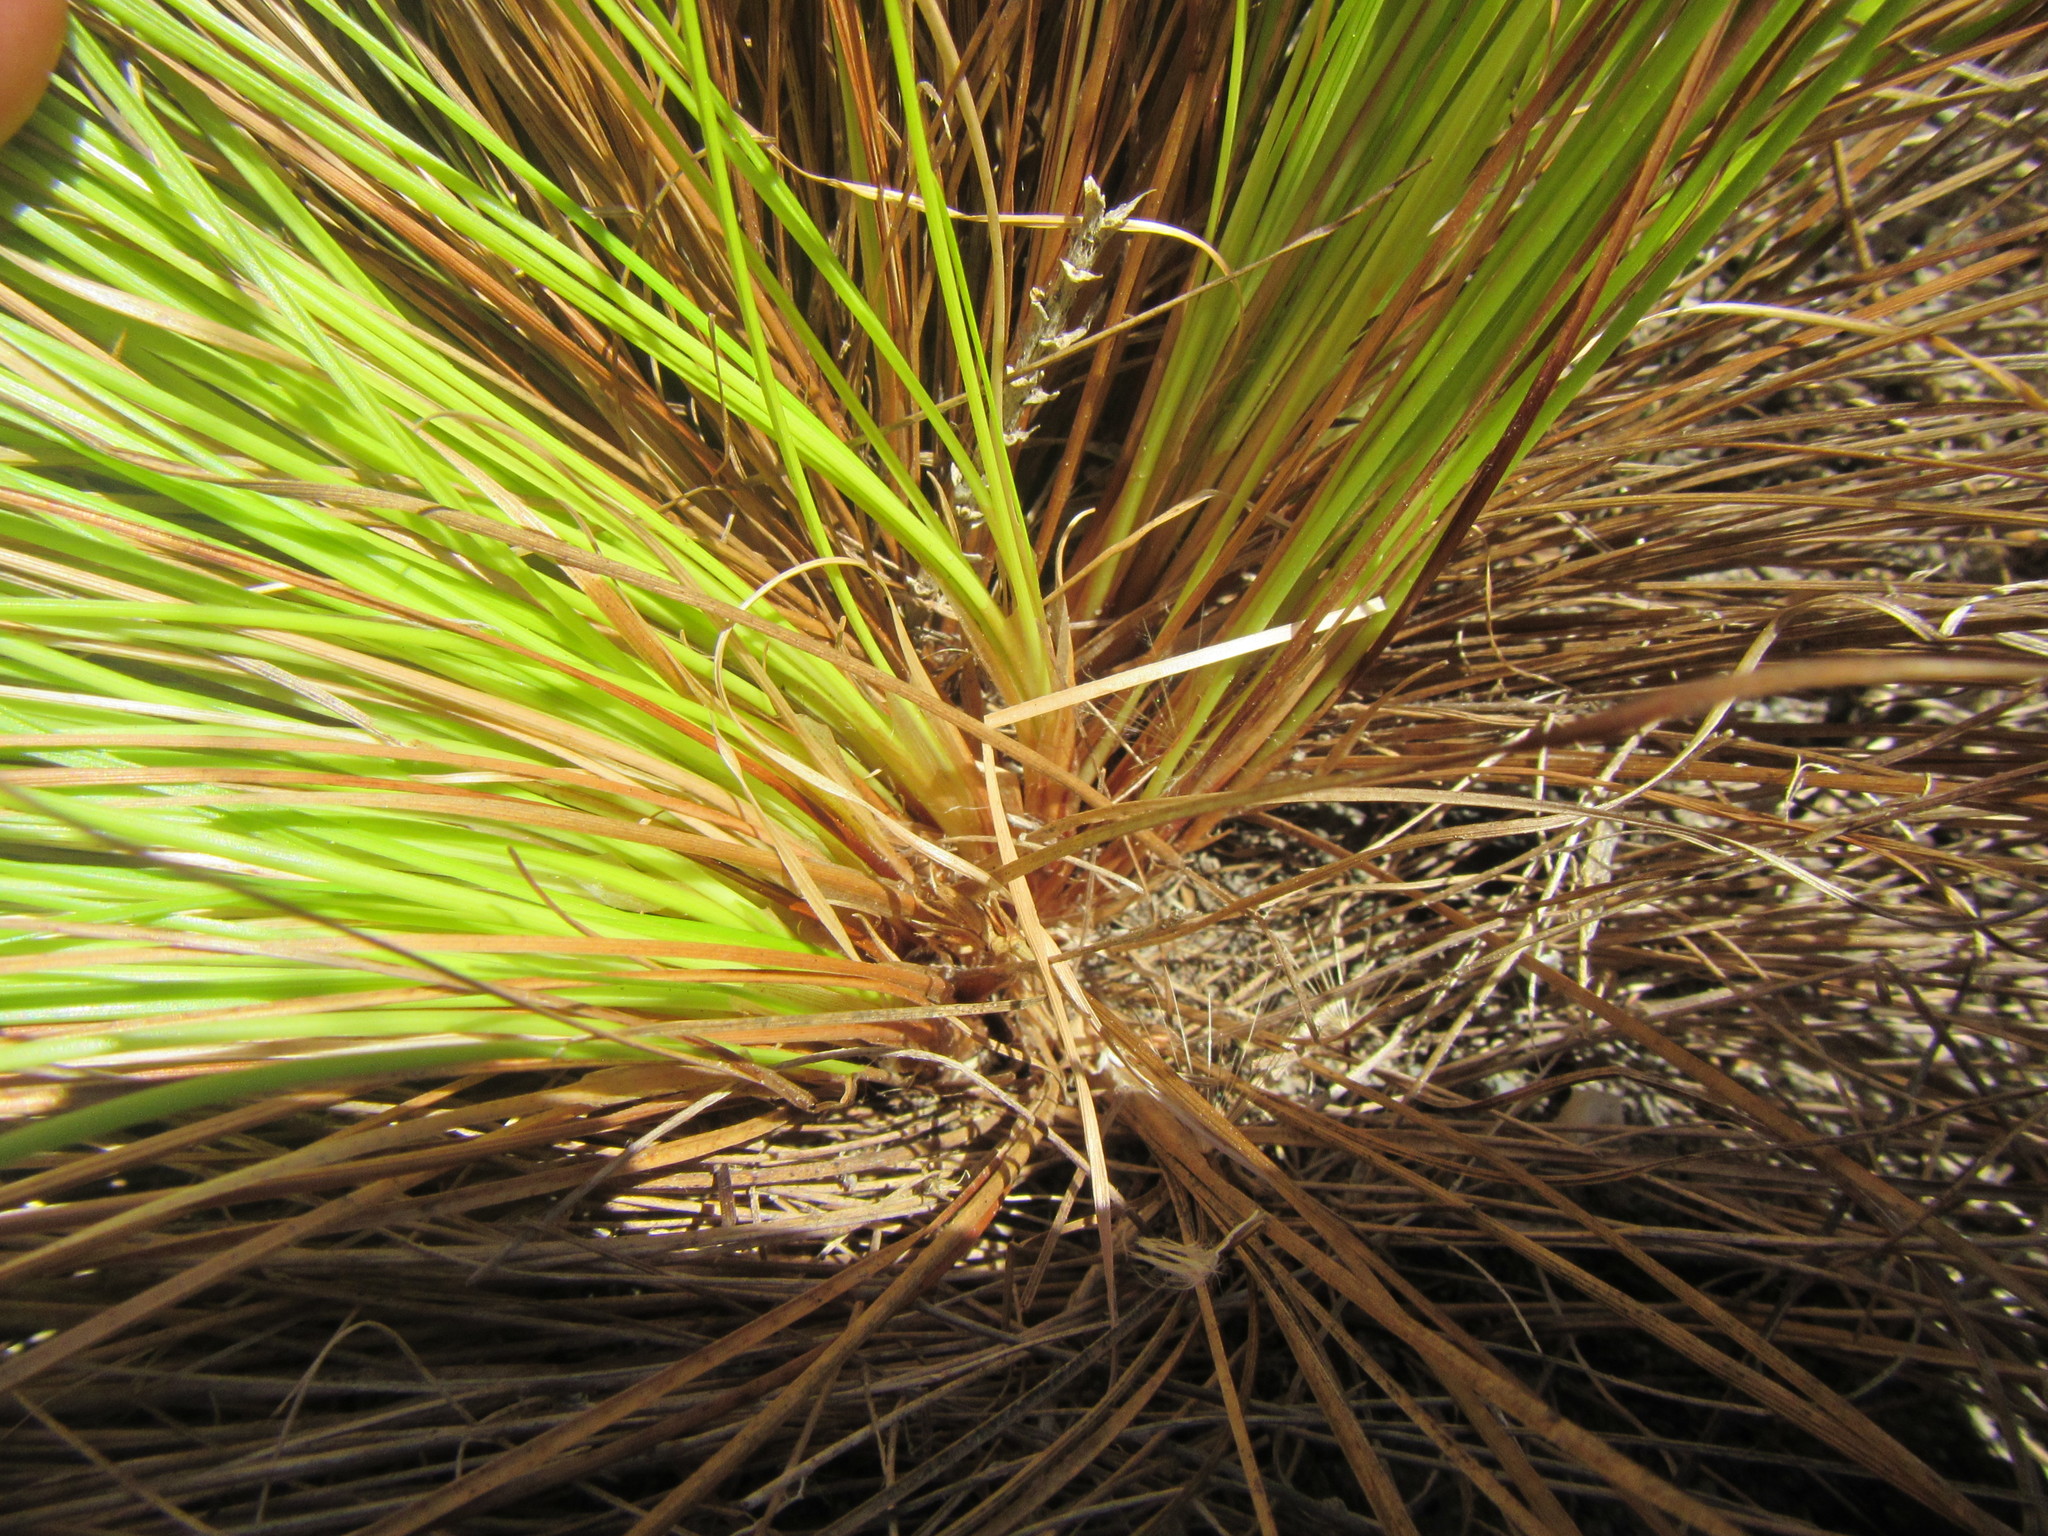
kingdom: Plantae
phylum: Tracheophyta
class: Liliopsida
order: Poales
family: Cyperaceae
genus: Ficinia
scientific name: Ficinia fastigiata
